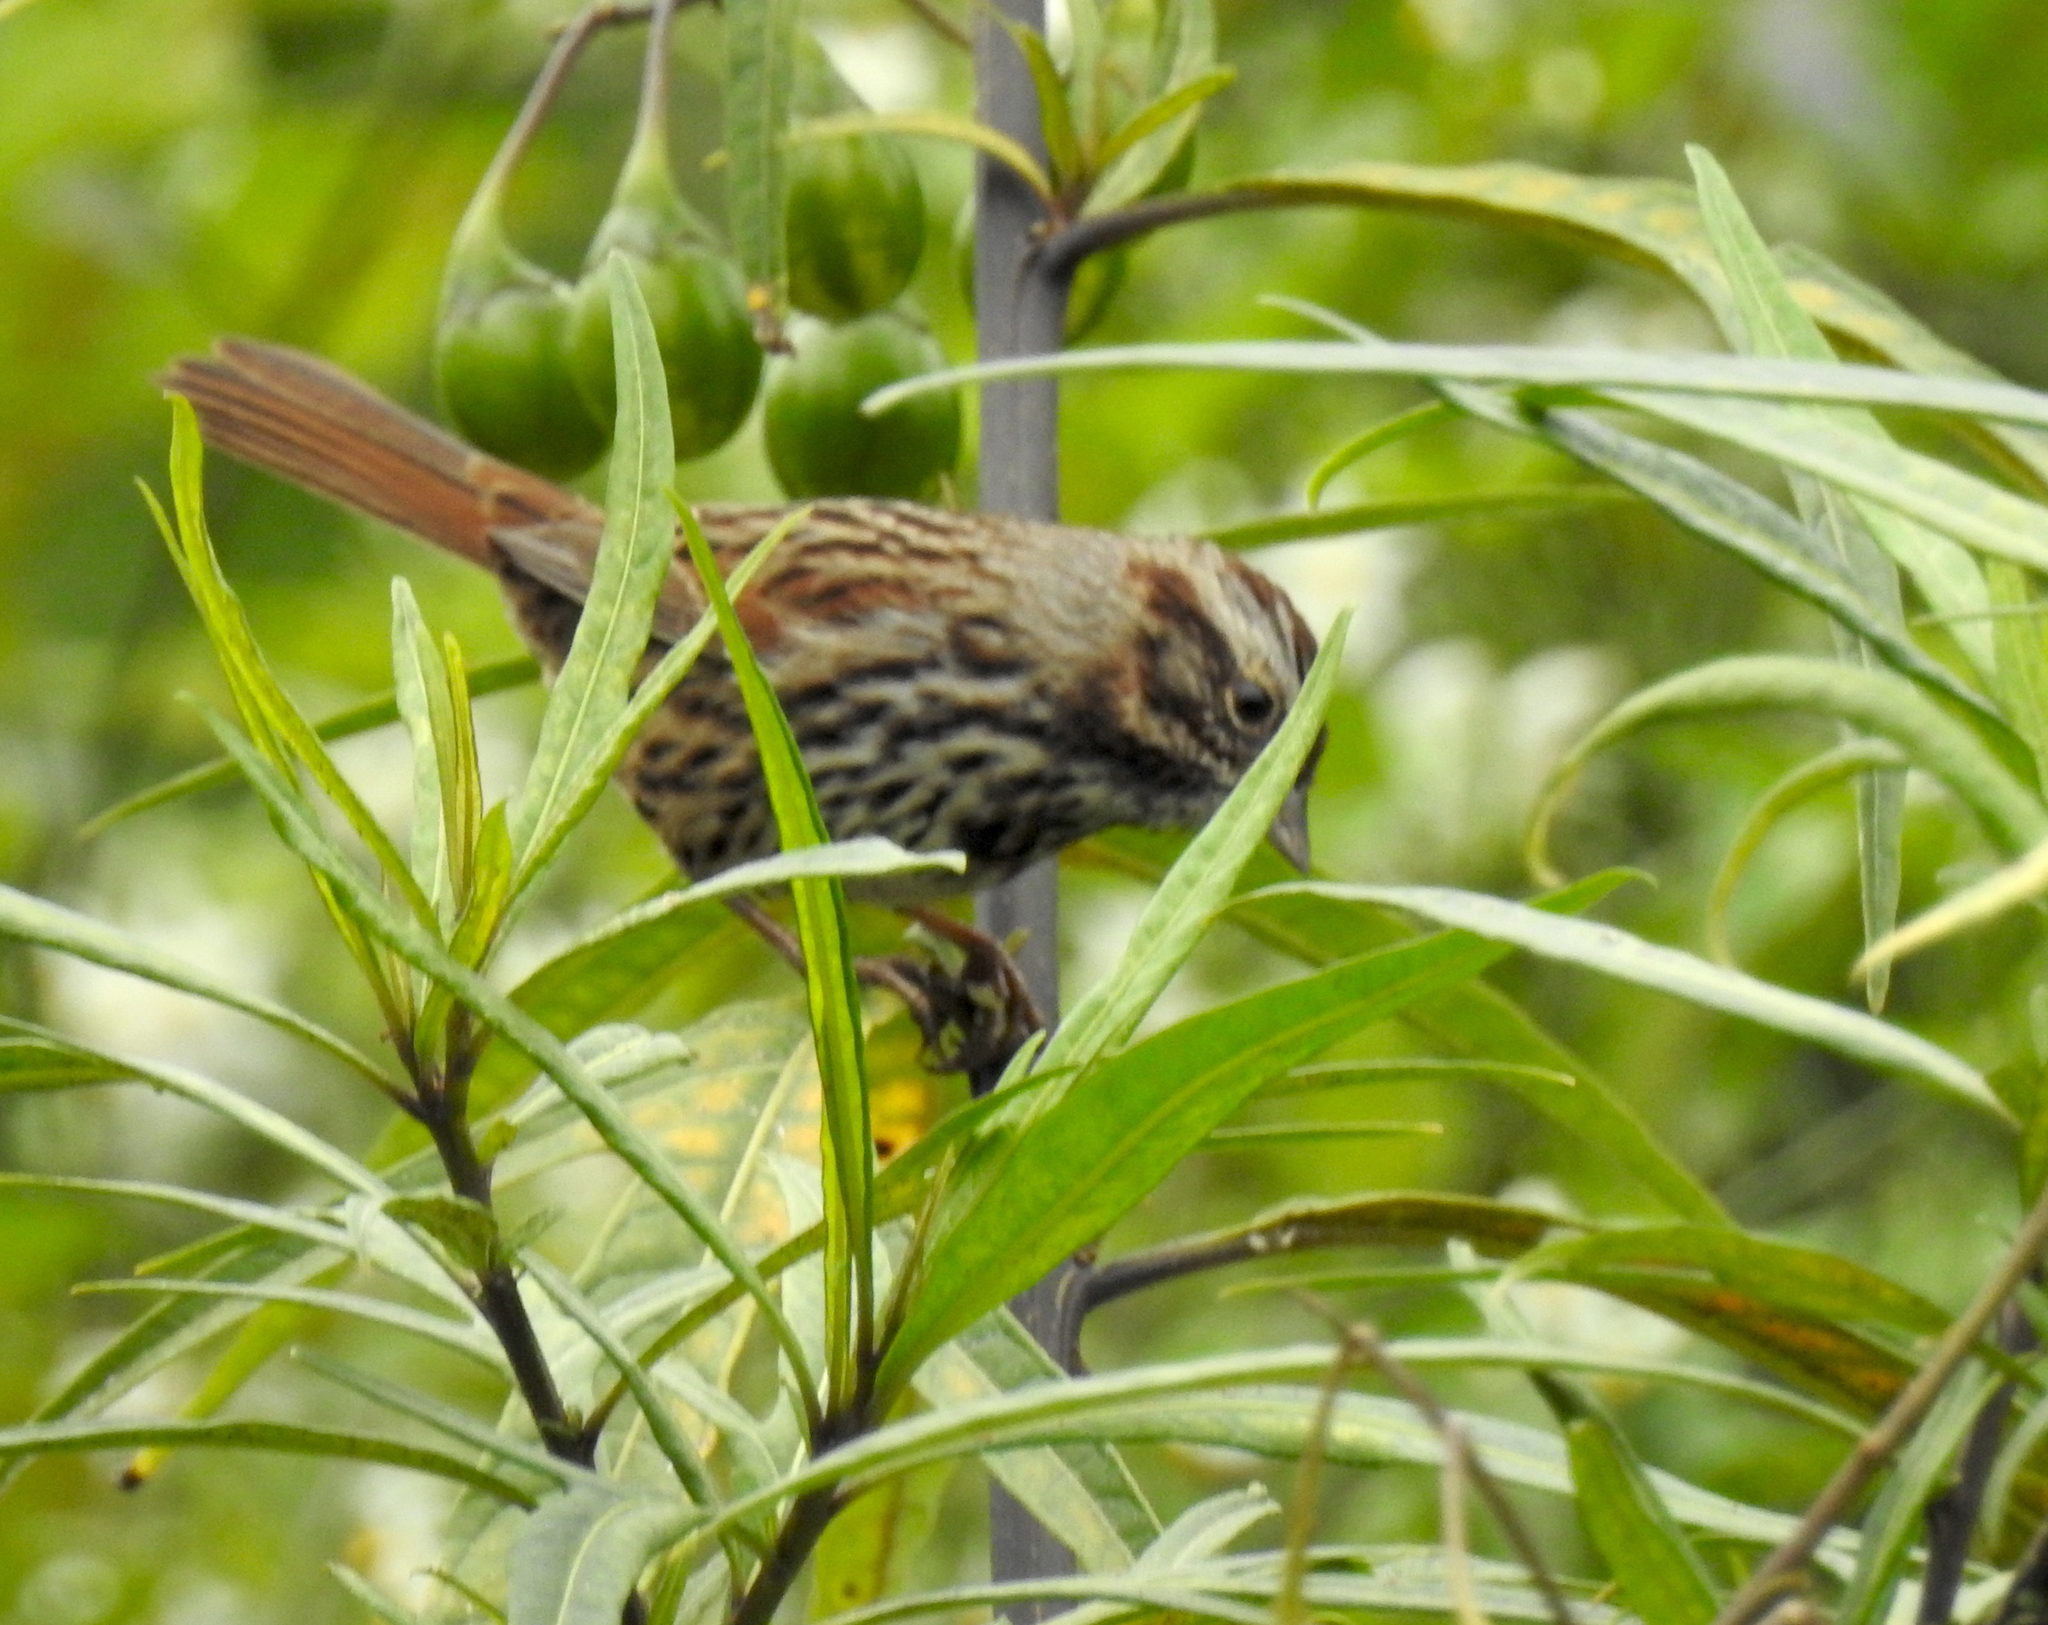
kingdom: Animalia
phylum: Chordata
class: Aves
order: Passeriformes
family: Passerellidae
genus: Melospiza
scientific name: Melospiza melodia
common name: Song sparrow
